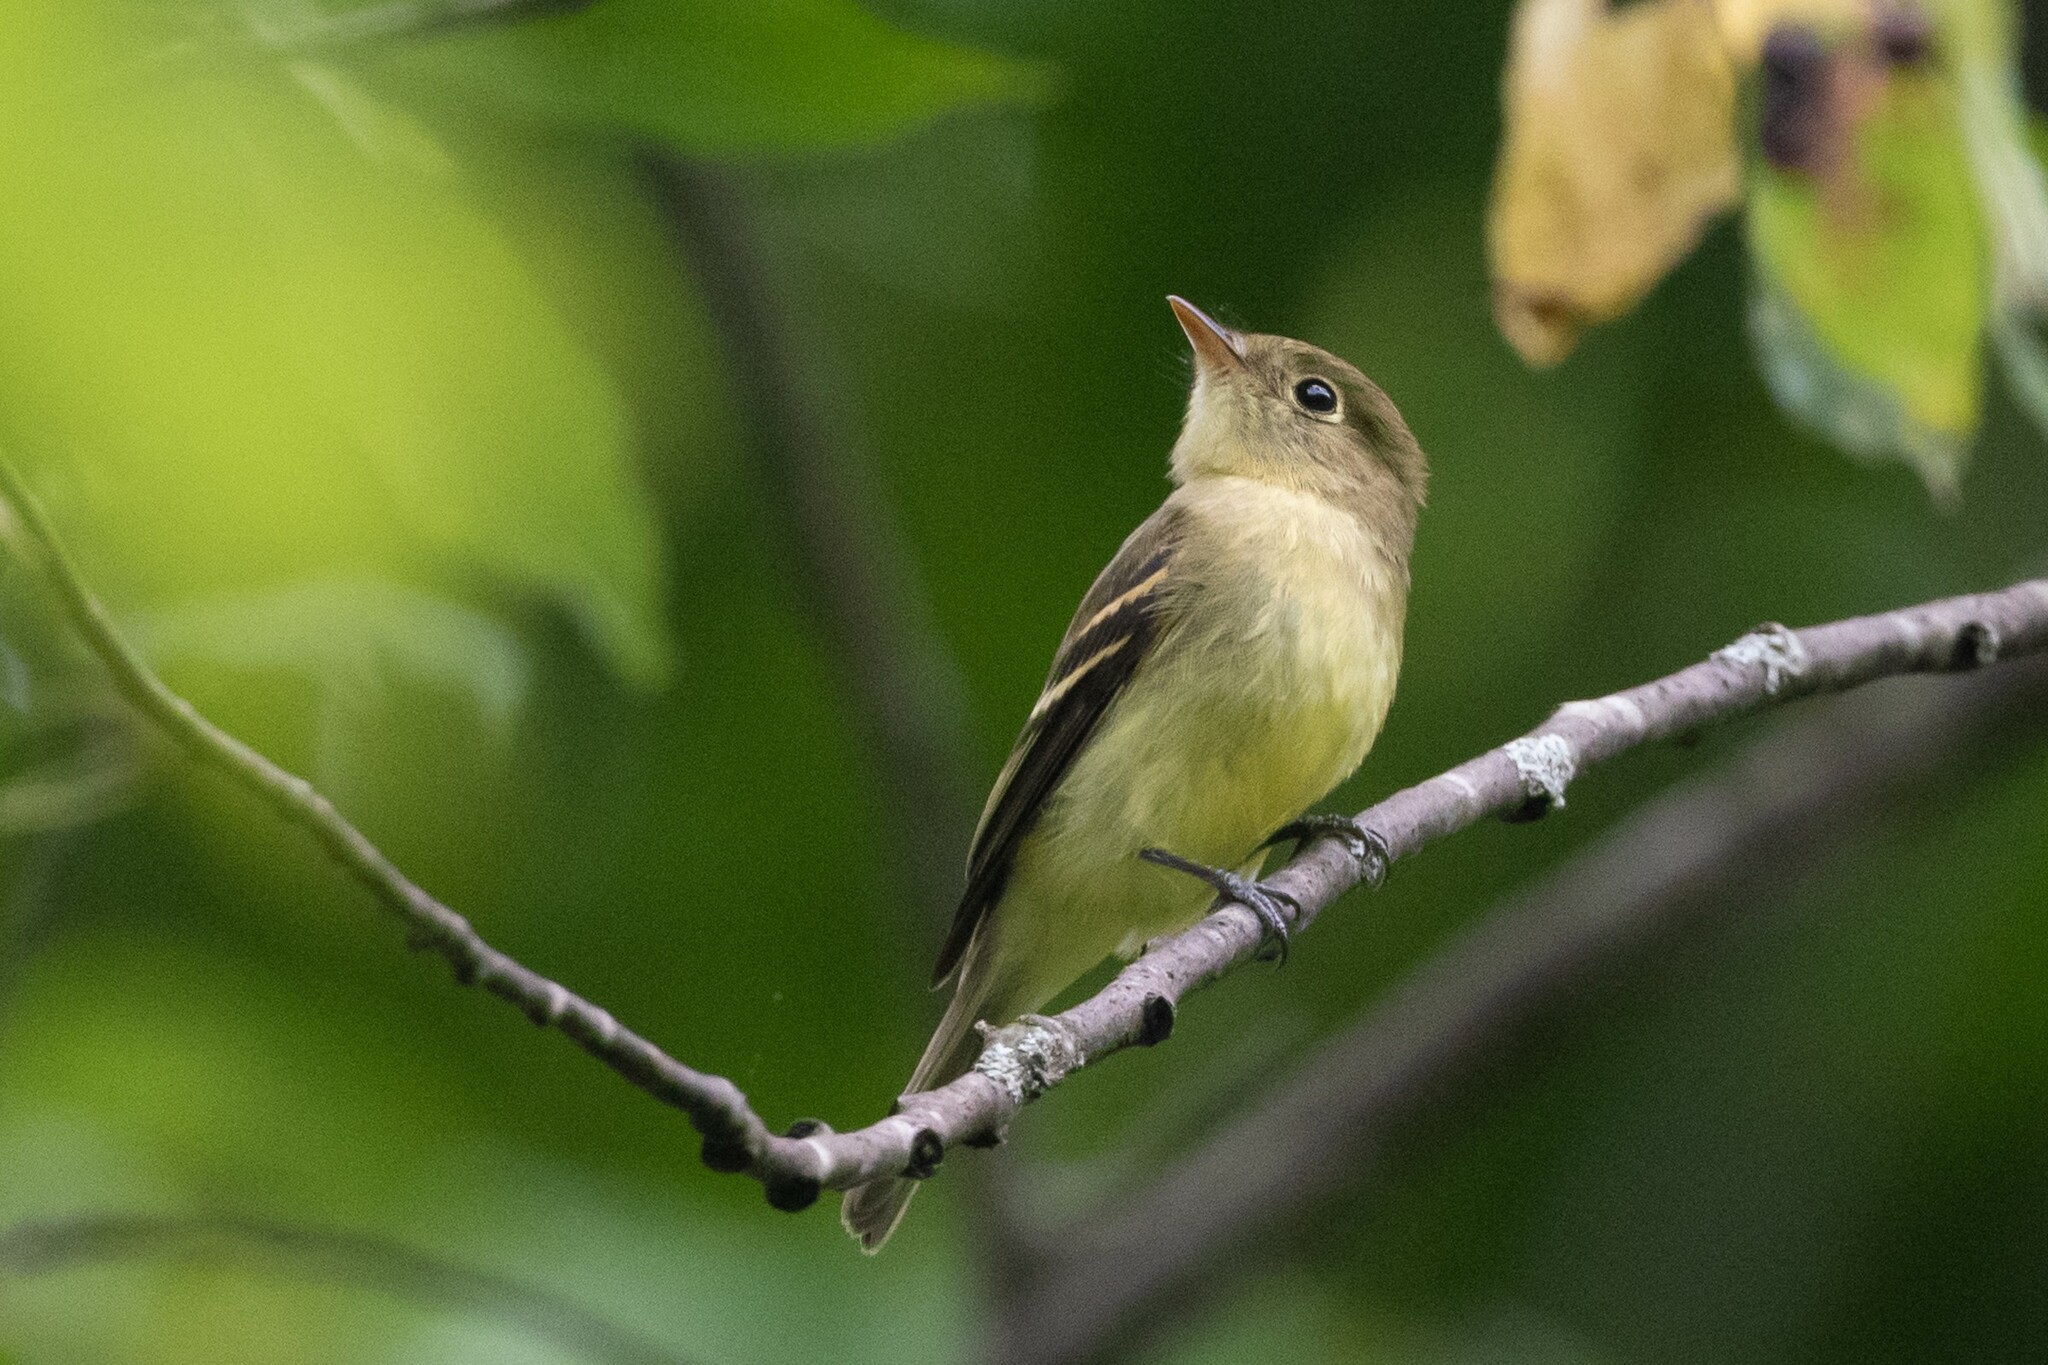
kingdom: Animalia
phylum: Chordata
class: Aves
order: Passeriformes
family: Tyrannidae
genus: Empidonax
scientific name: Empidonax flaviventris
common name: Yellow-bellied flycatcher
